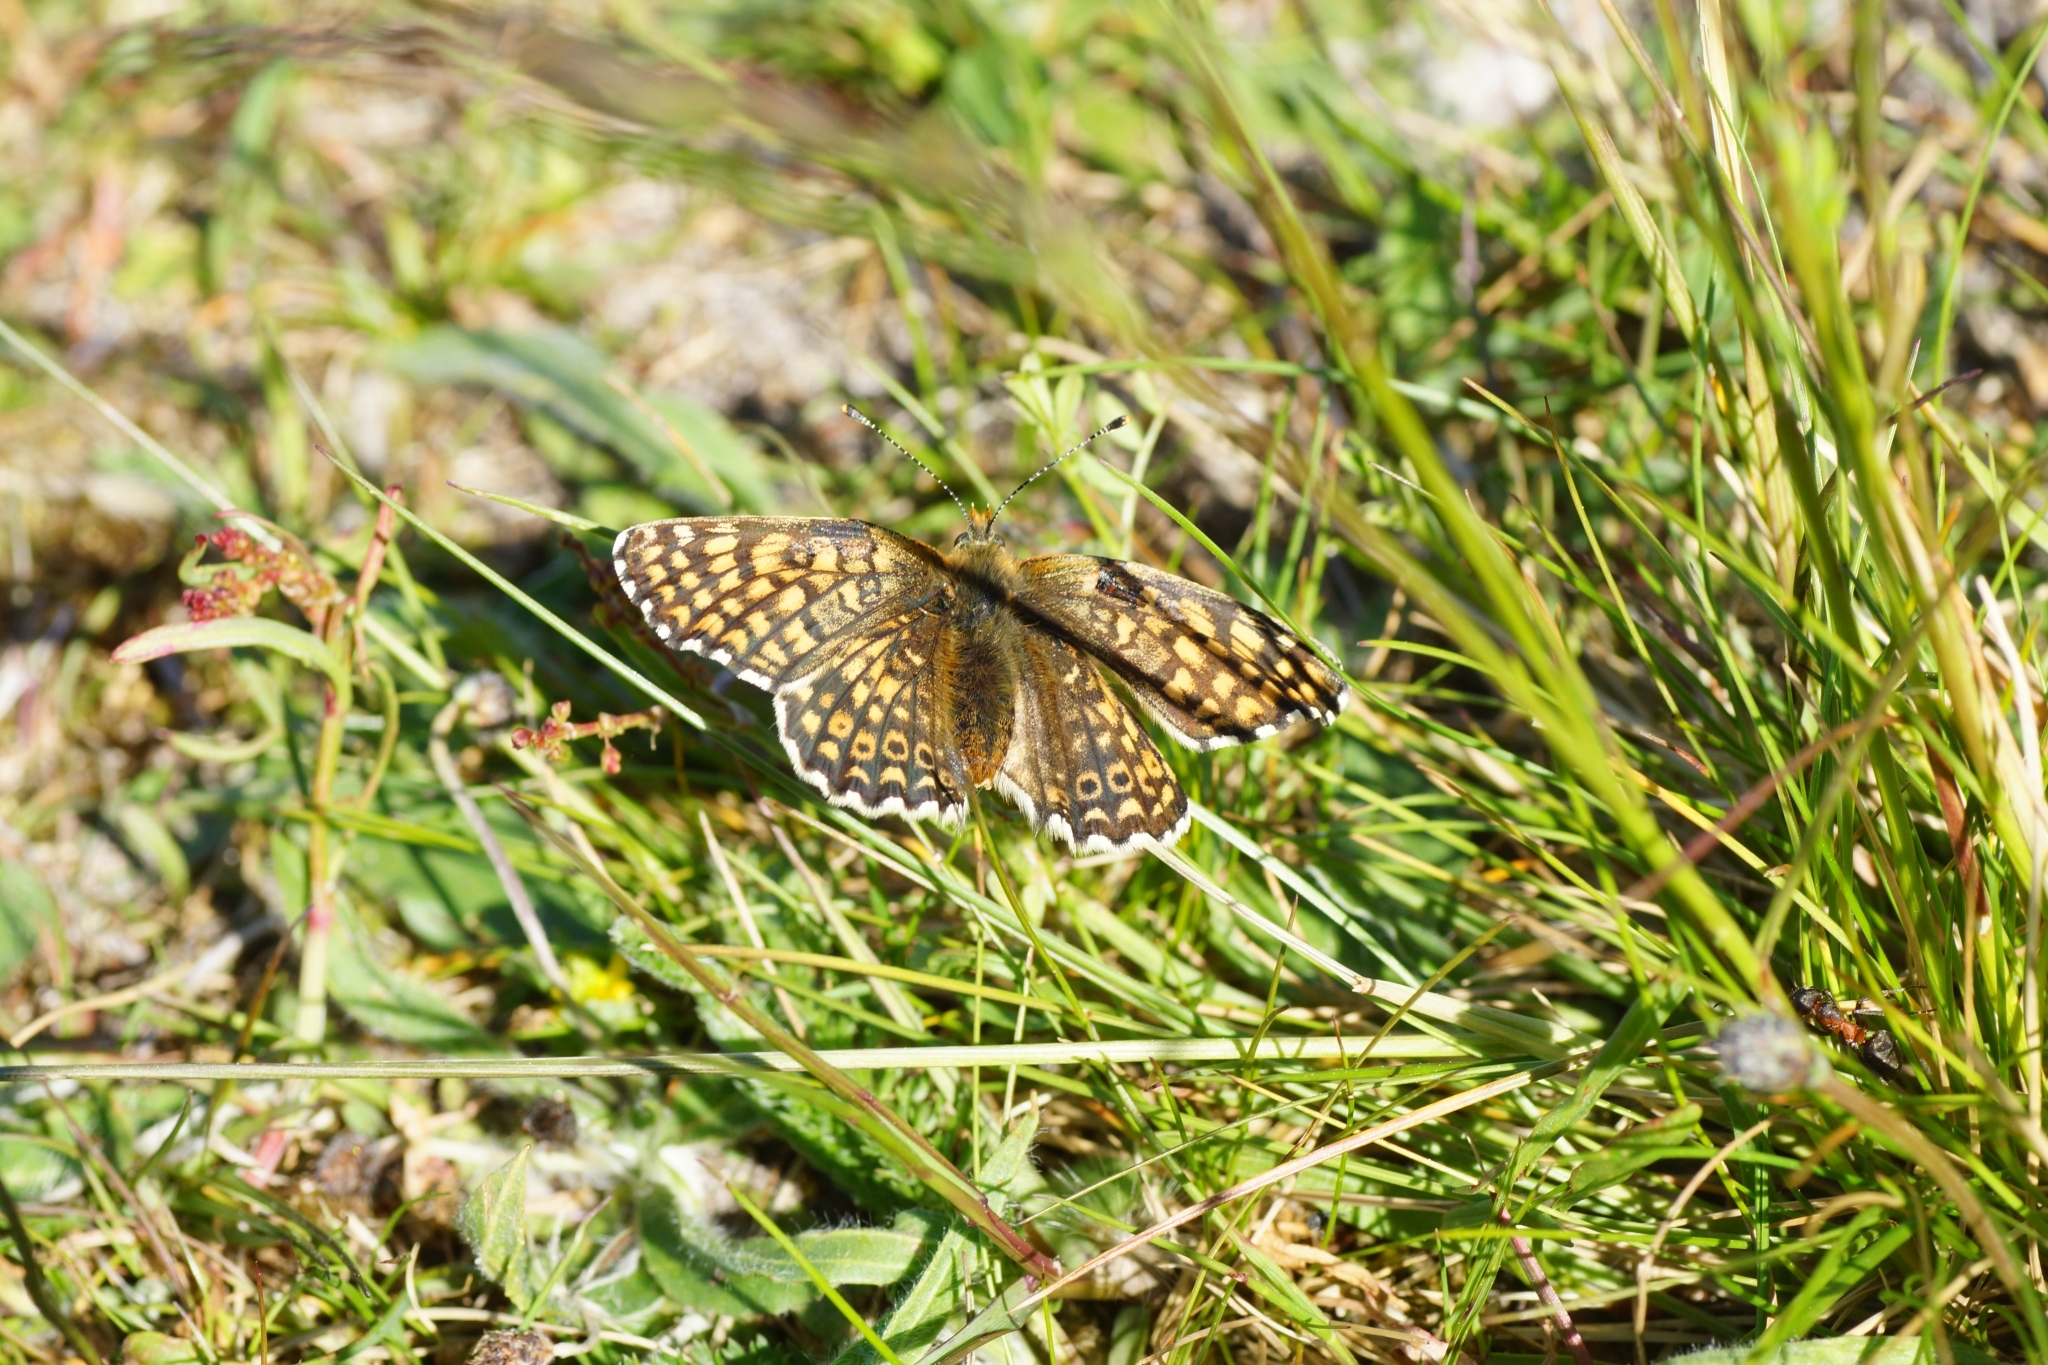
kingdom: Animalia
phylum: Arthropoda
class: Insecta
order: Lepidoptera
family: Nymphalidae
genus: Melitaea
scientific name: Melitaea cinxia
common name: Glanville fritillary
